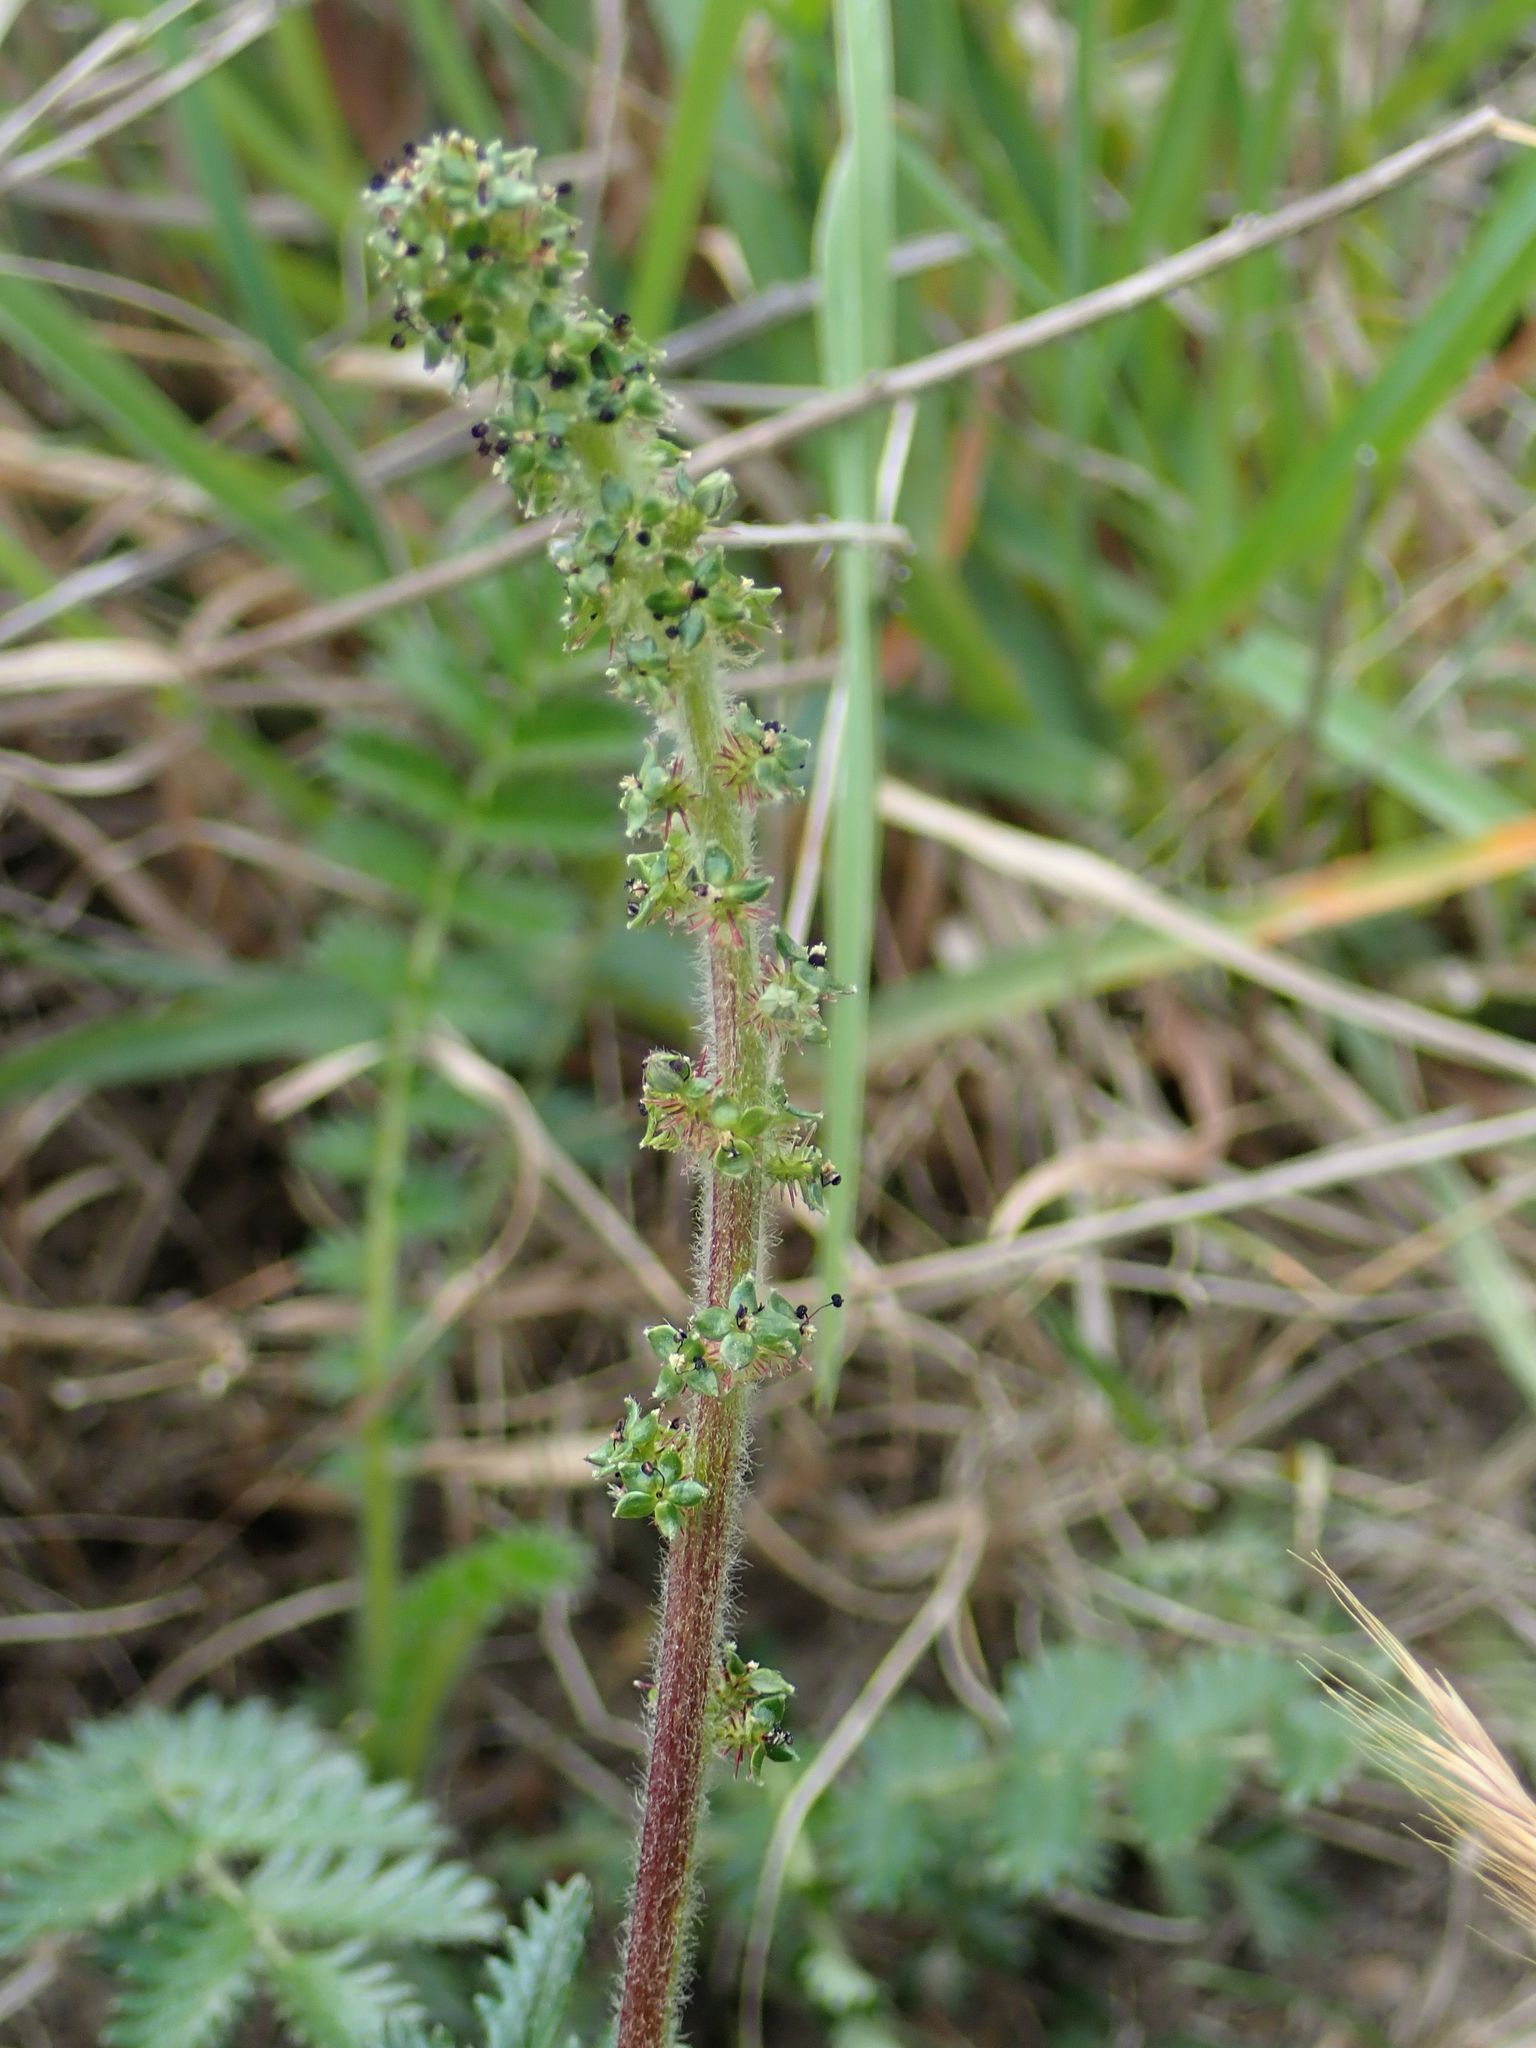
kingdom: Plantae
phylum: Tracheophyta
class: Magnoliopsida
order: Rosales
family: Rosaceae
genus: Acaena
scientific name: Acaena agnipila
